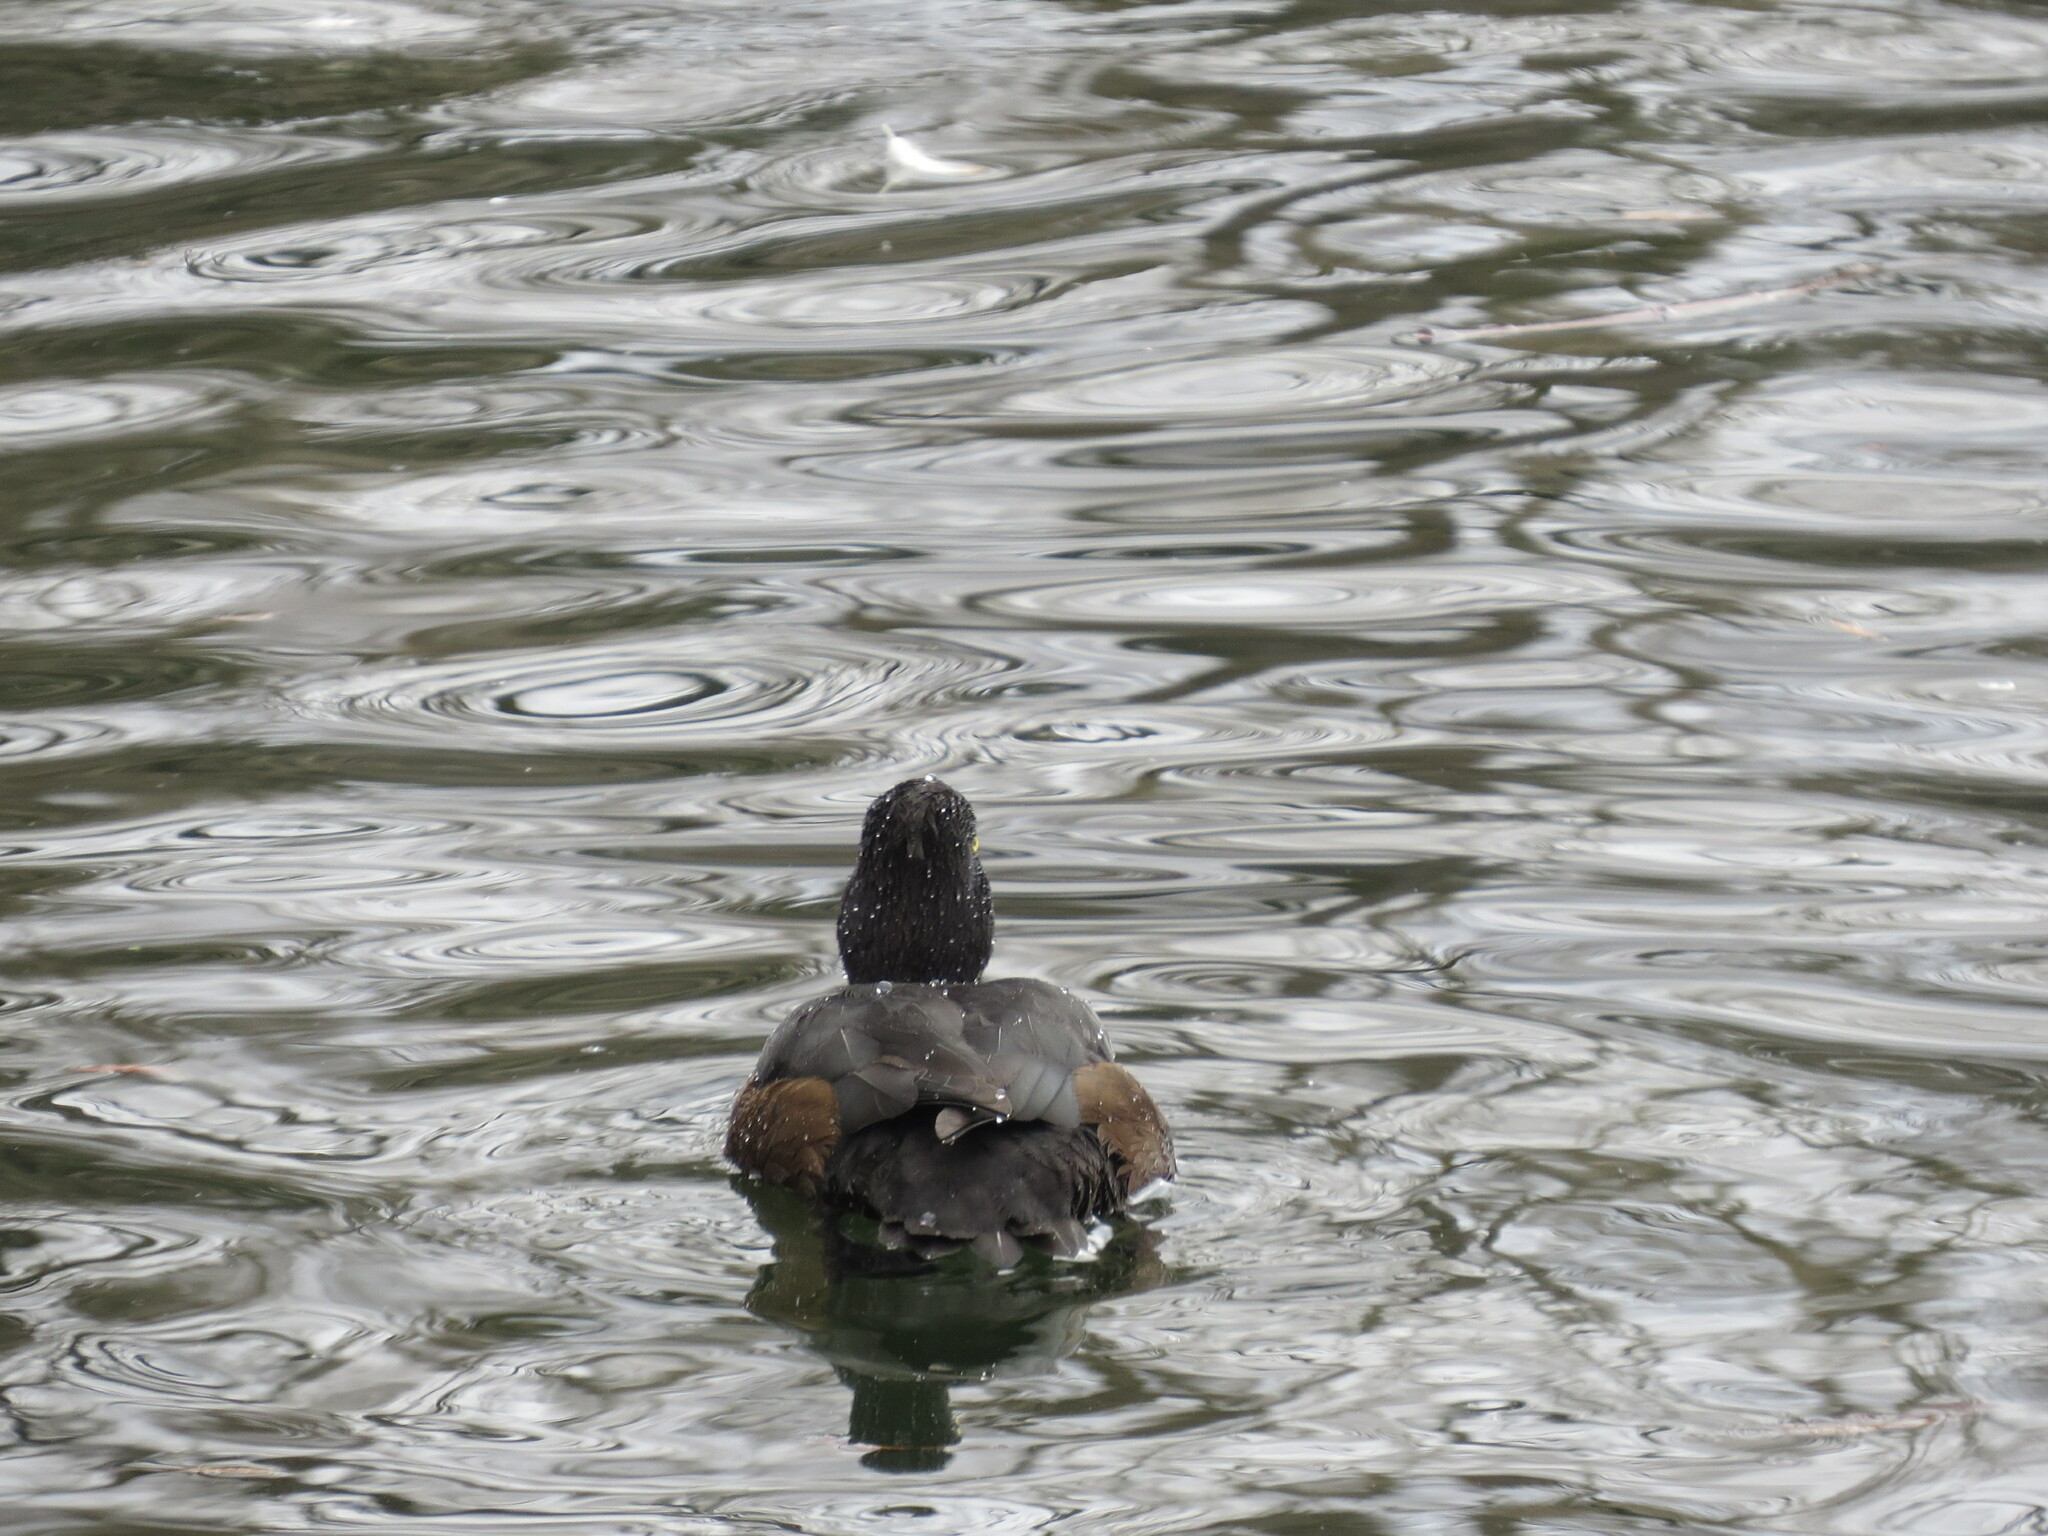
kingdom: Animalia
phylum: Chordata
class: Aves
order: Anseriformes
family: Anatidae
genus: Aythya
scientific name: Aythya fuligula
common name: Tufted duck
